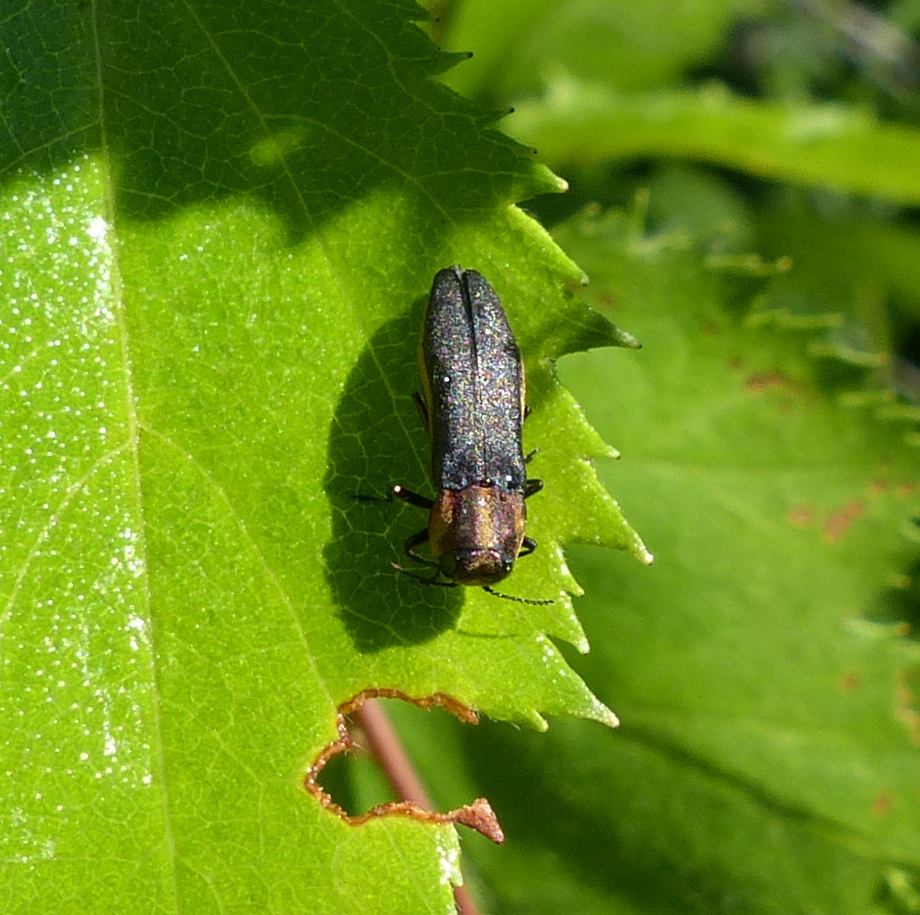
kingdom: Animalia
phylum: Arthropoda
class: Insecta
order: Coleoptera
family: Buprestidae
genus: Agrilus
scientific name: Agrilus vittaticollis
